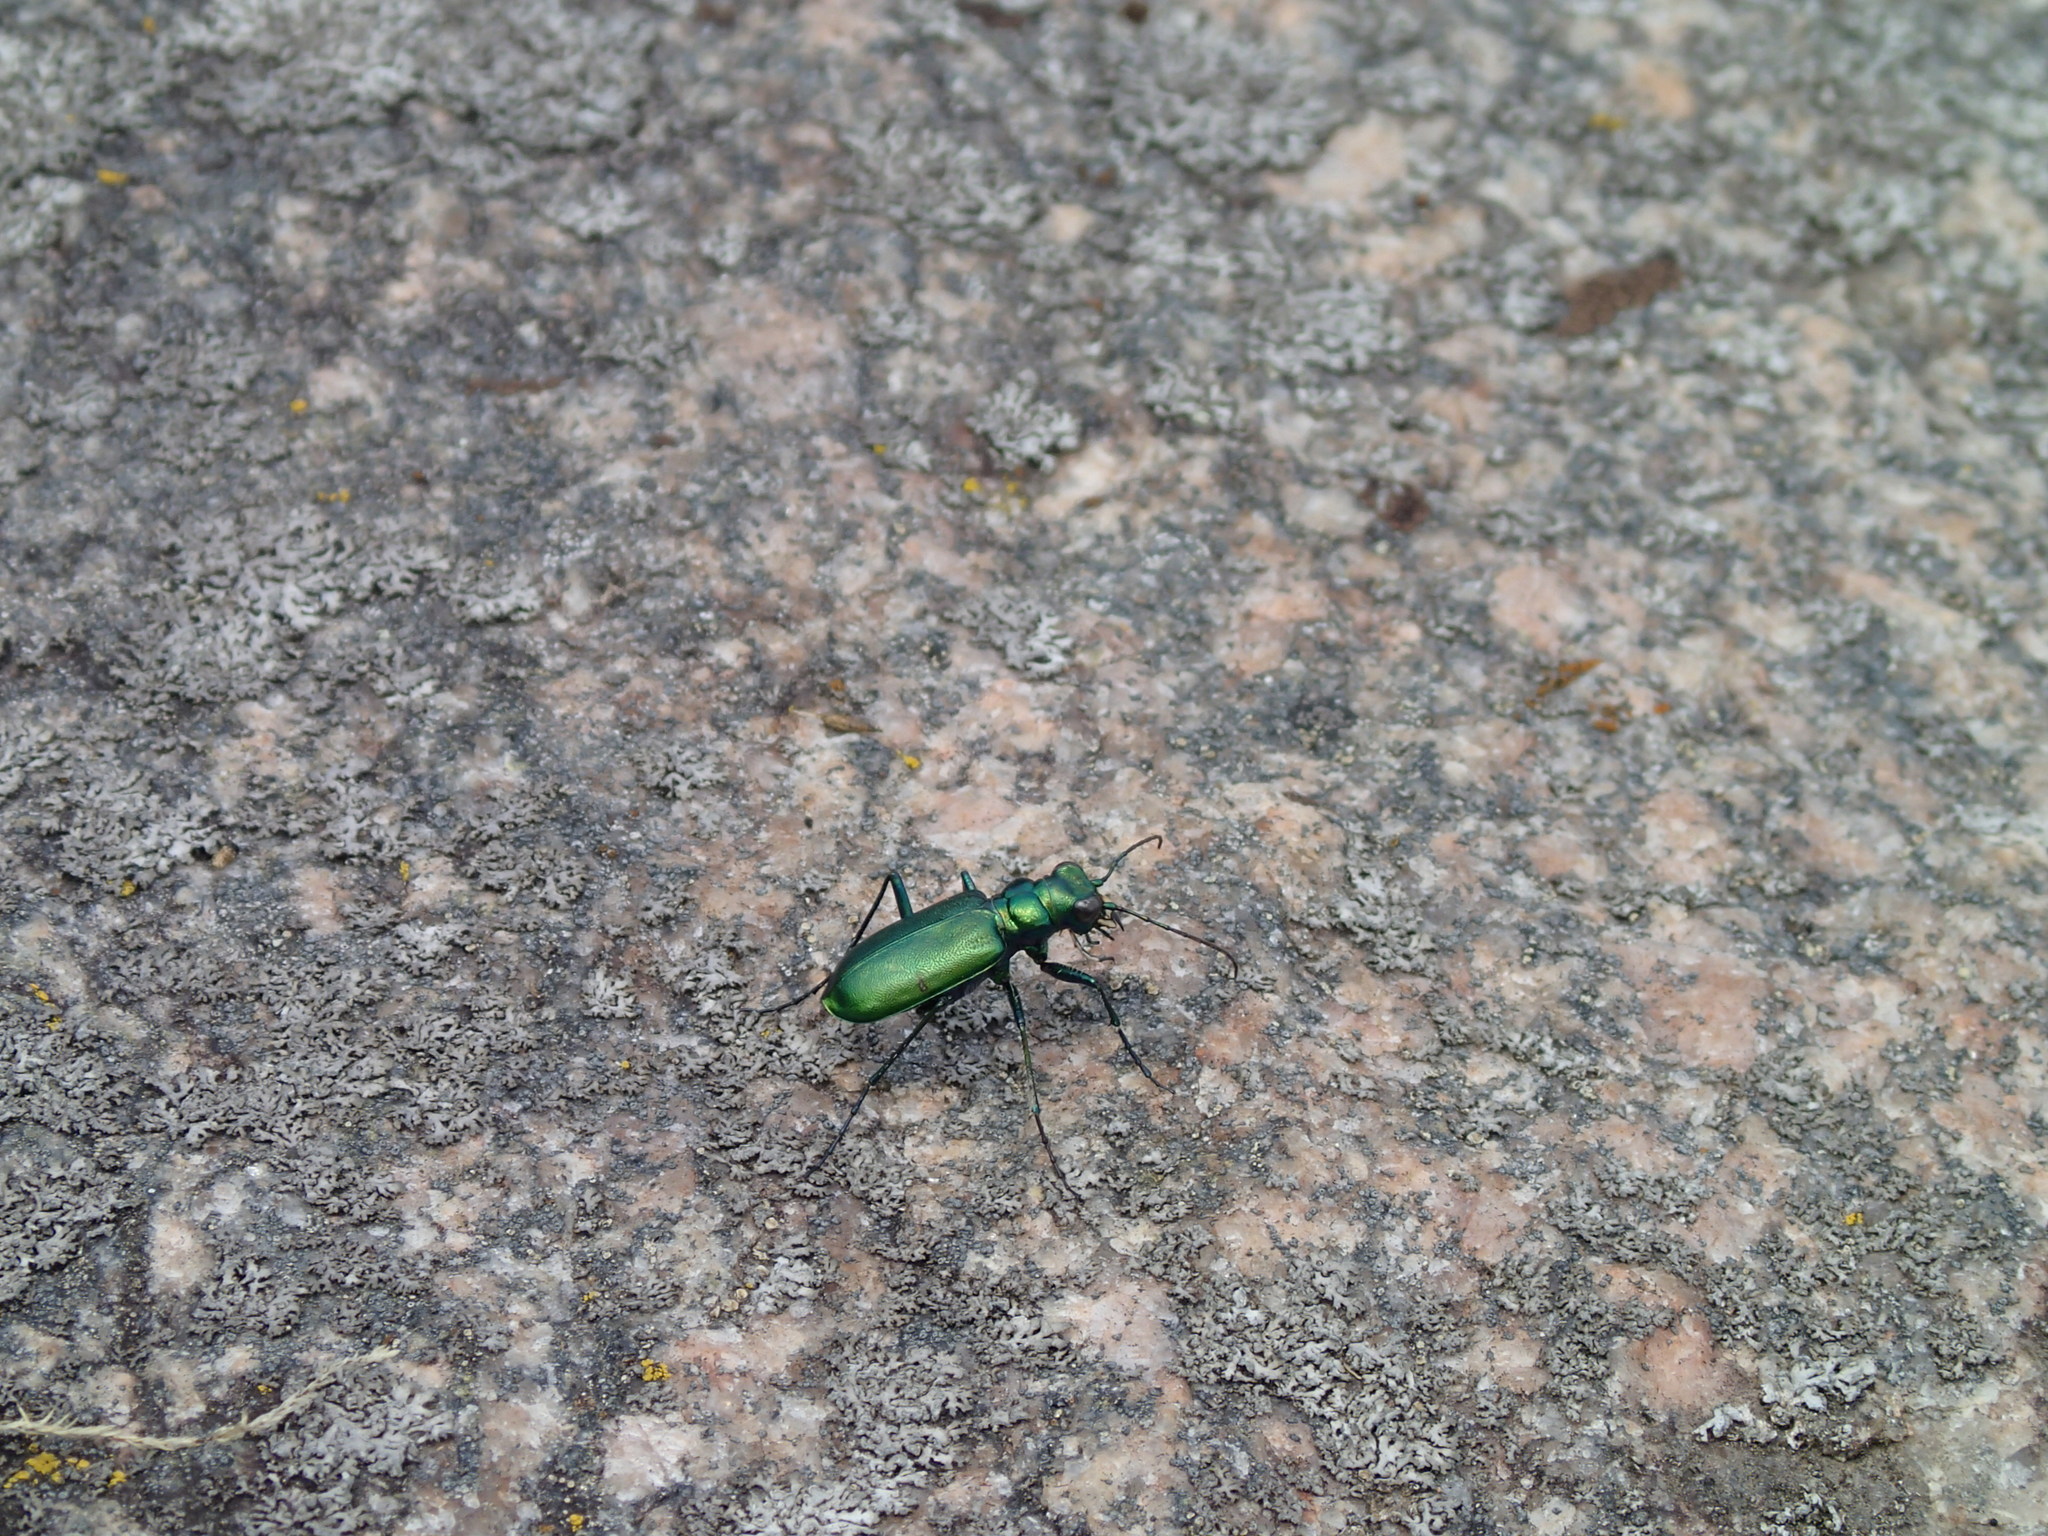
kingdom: Animalia
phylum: Arthropoda
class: Insecta
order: Coleoptera
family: Carabidae
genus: Cicindela
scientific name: Cicindela denikei
